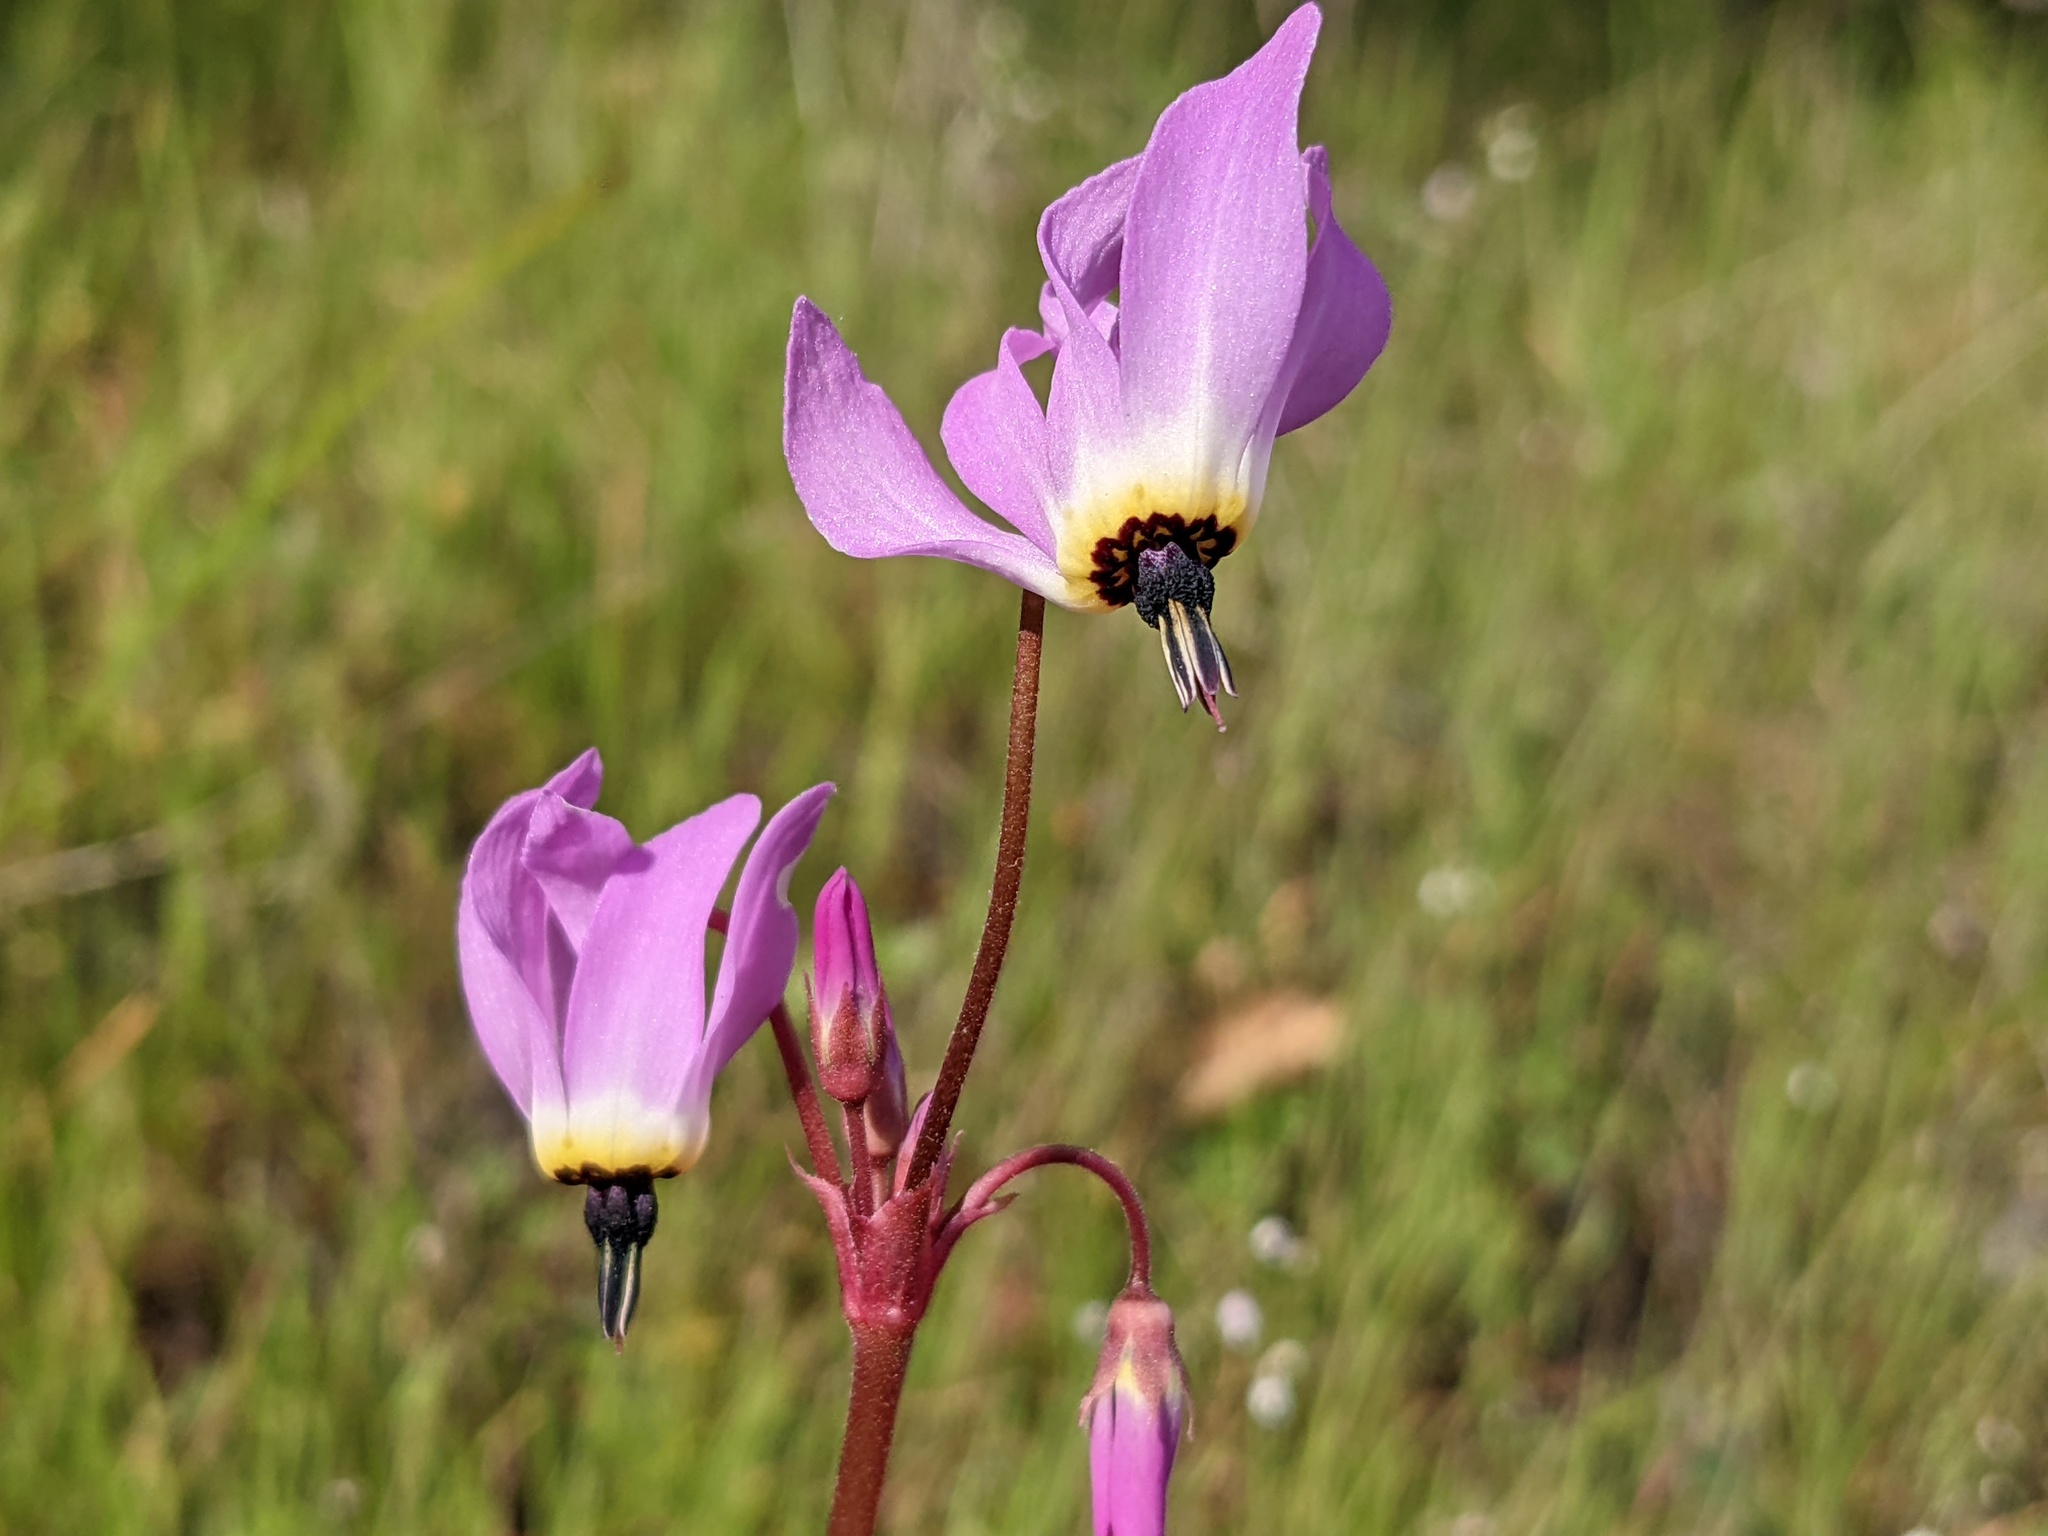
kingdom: Plantae
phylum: Tracheophyta
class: Magnoliopsida
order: Ericales
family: Primulaceae
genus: Dodecatheon
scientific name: Dodecatheon hendersonii
